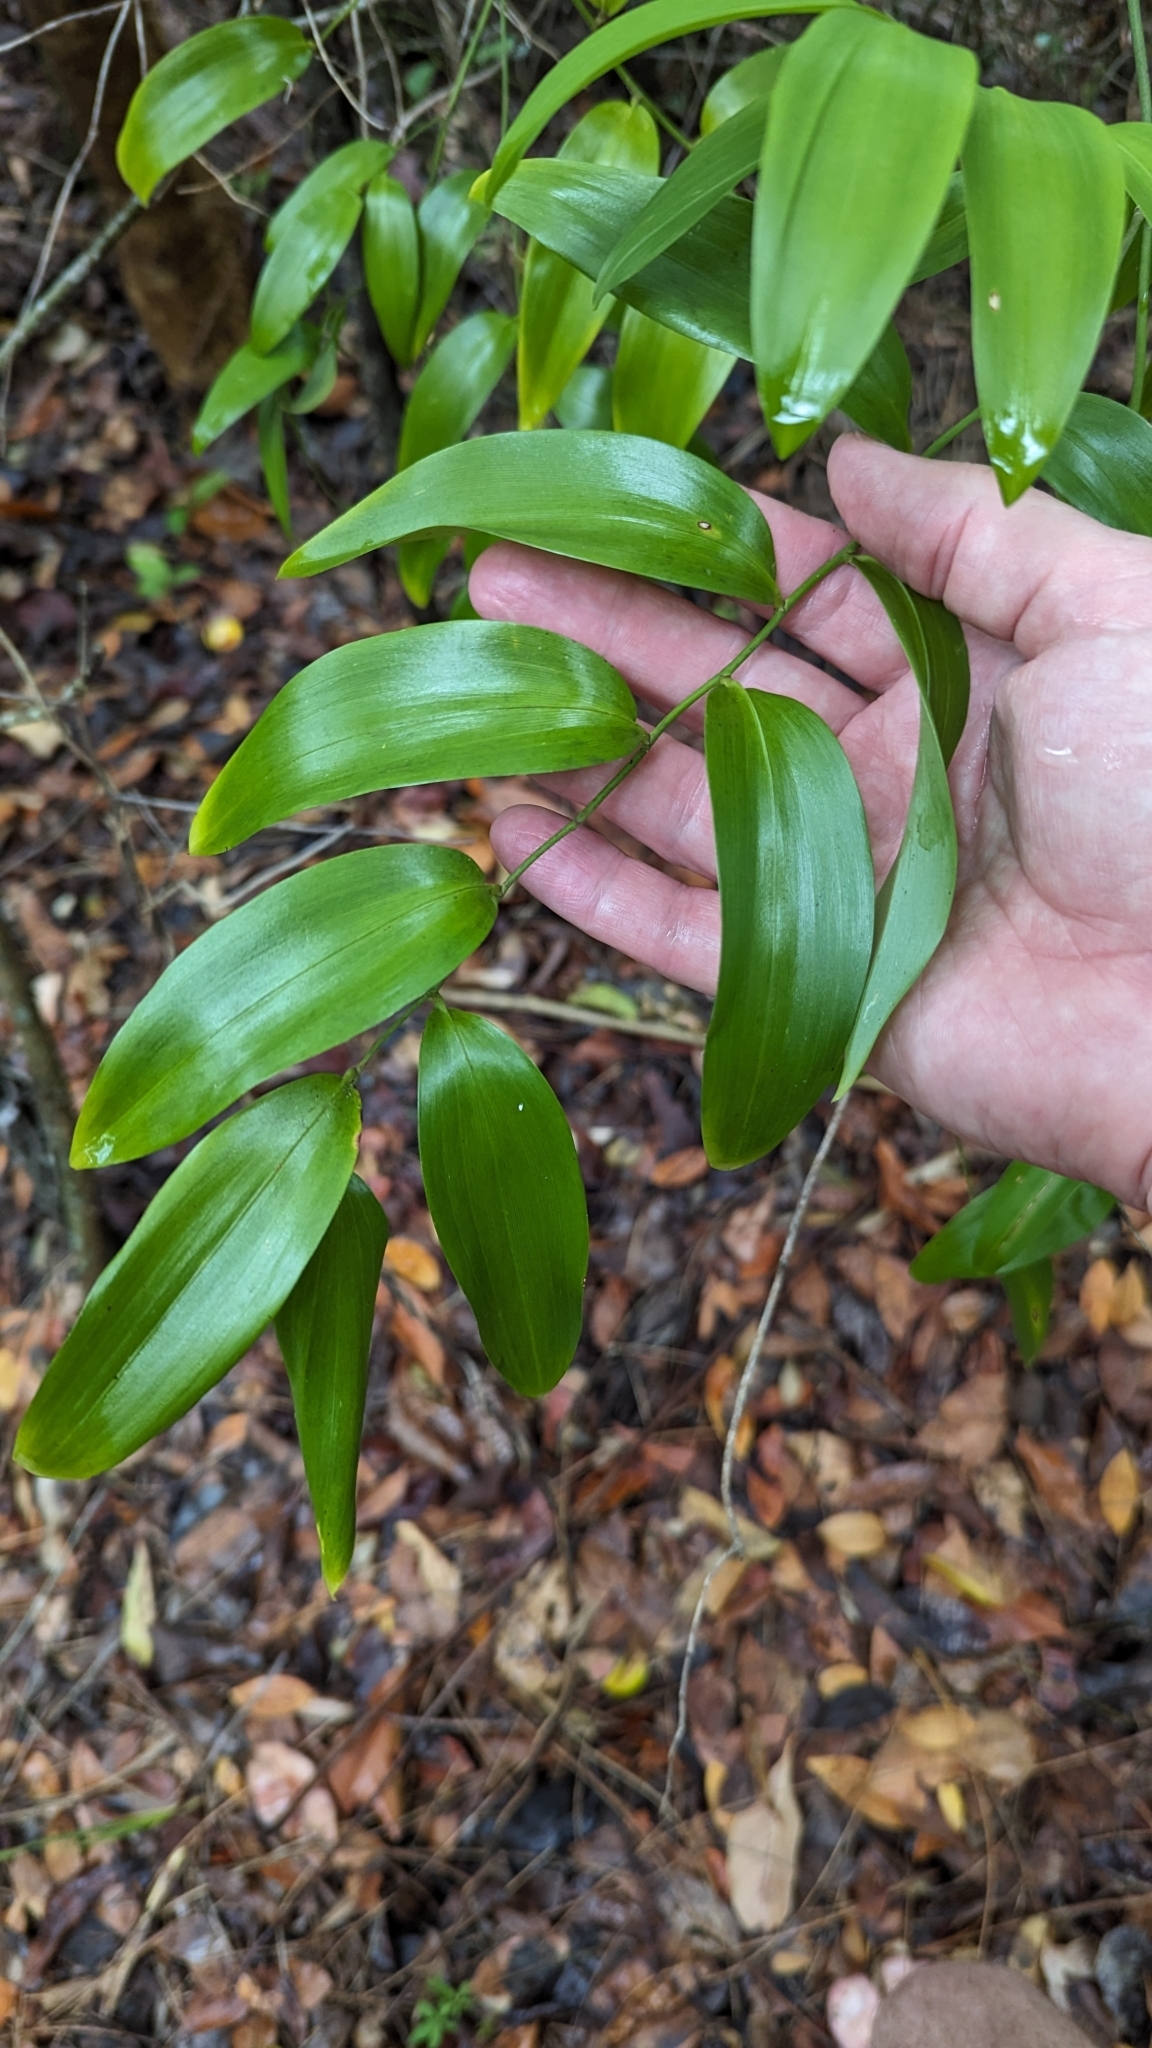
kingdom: Plantae
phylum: Tracheophyta
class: Liliopsida
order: Asparagales
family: Asphodelaceae
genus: Geitonoplesium
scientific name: Geitonoplesium cymosum
